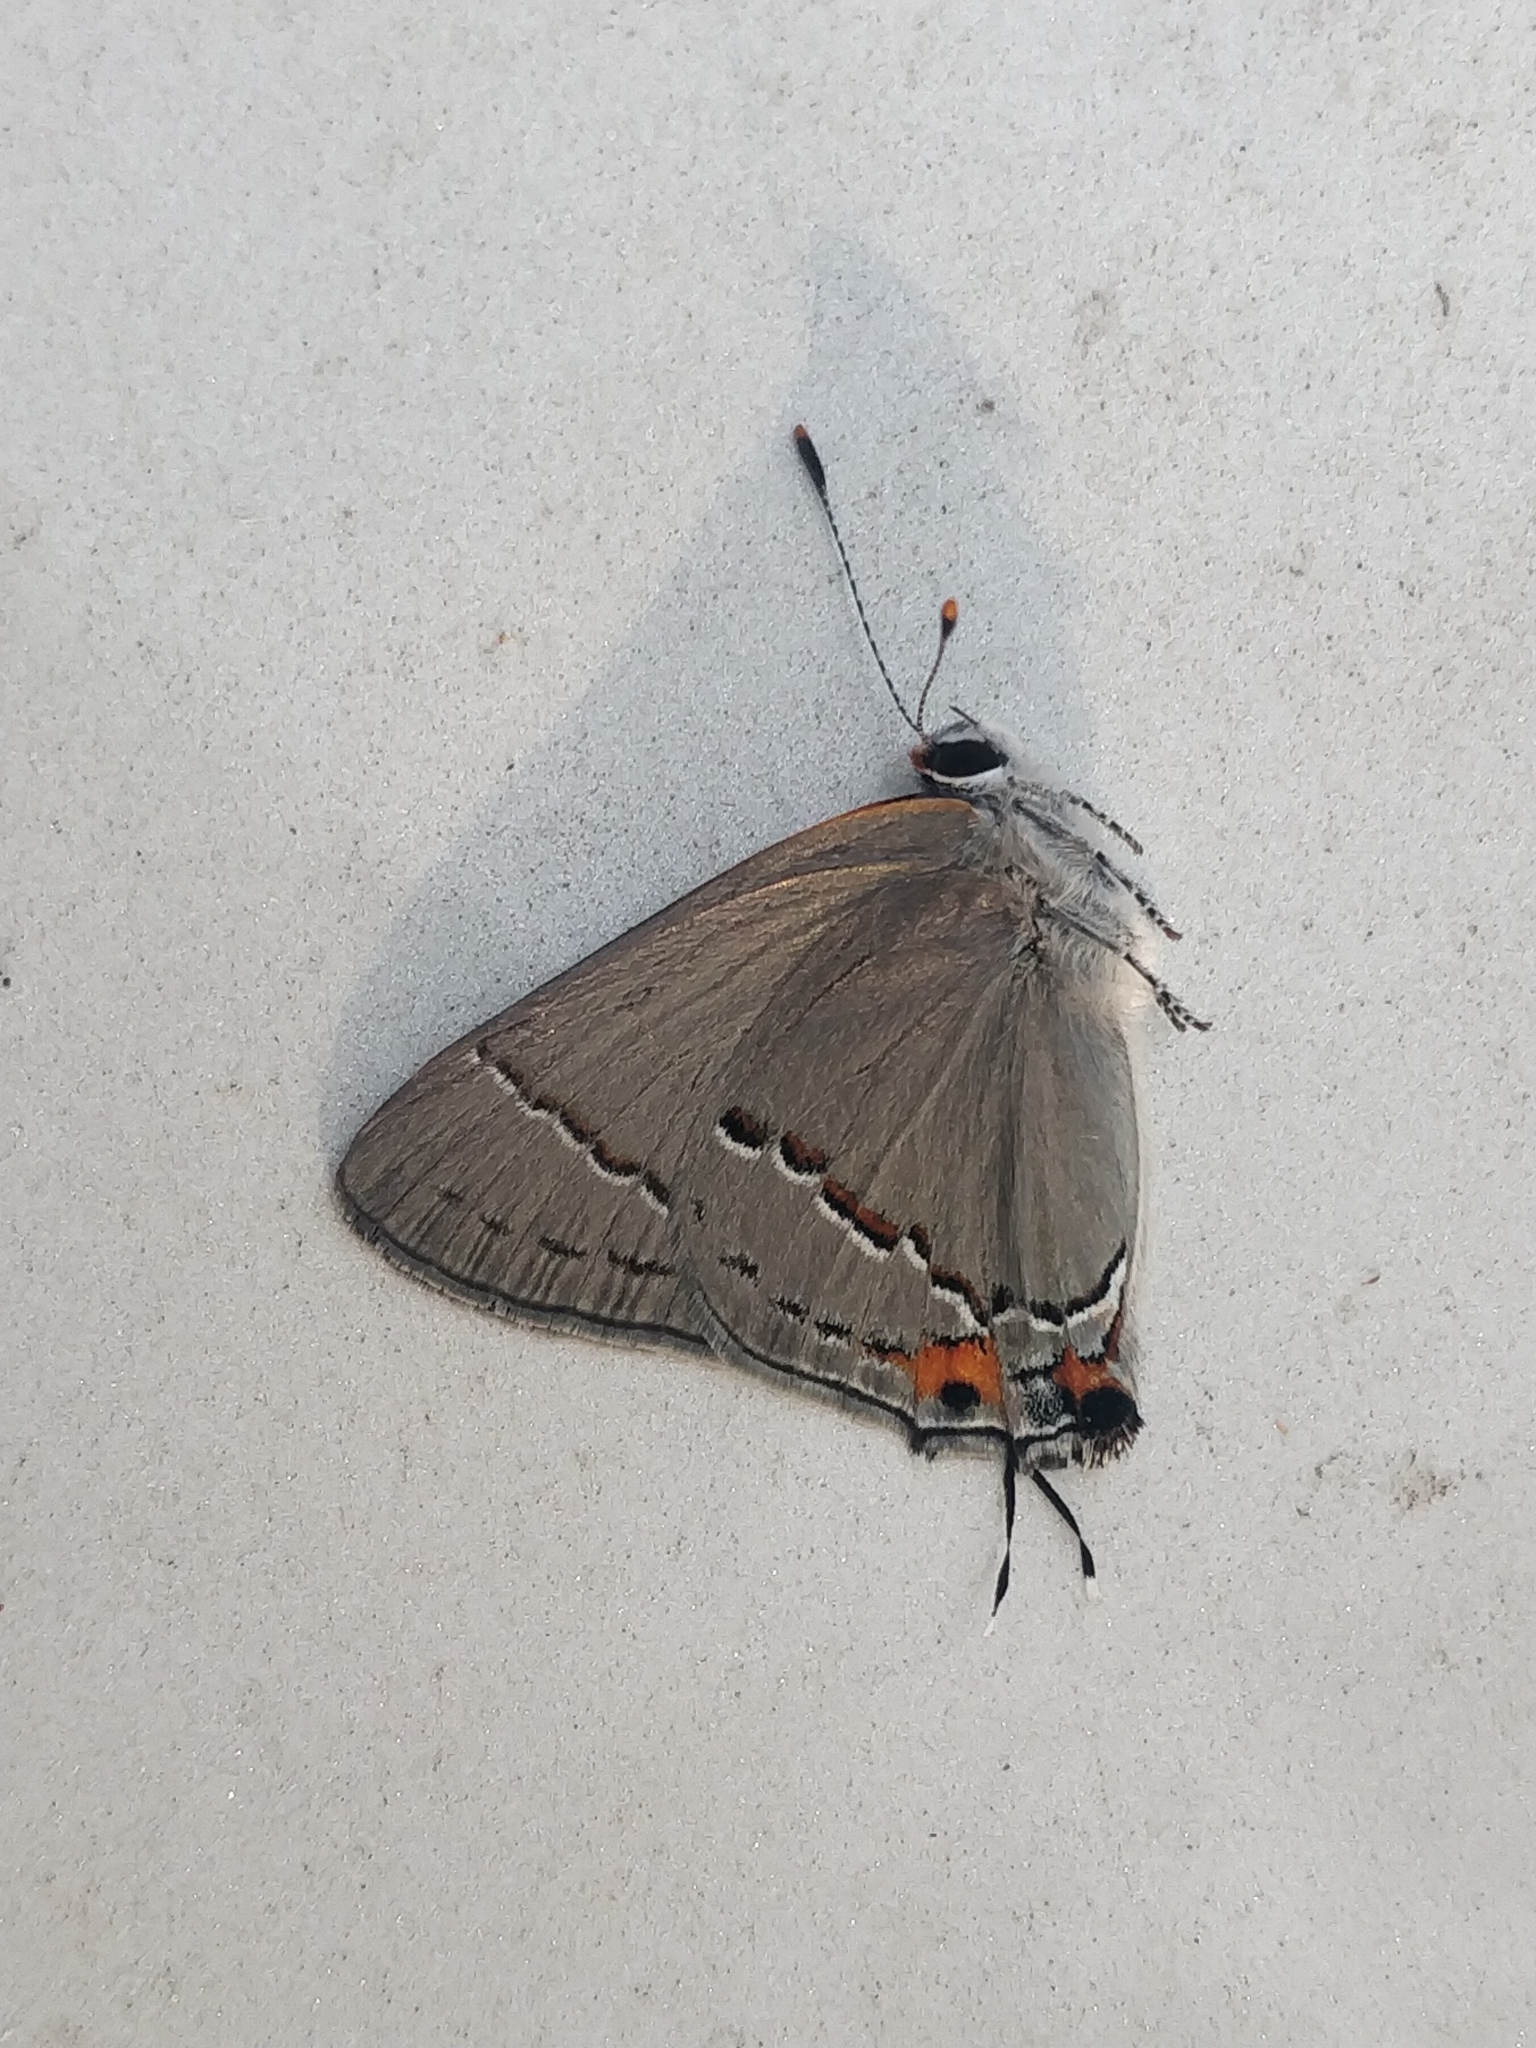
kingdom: Animalia
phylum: Arthropoda
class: Insecta
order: Lepidoptera
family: Lycaenidae
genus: Strymon
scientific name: Strymon melinus
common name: Gray hairstreak
